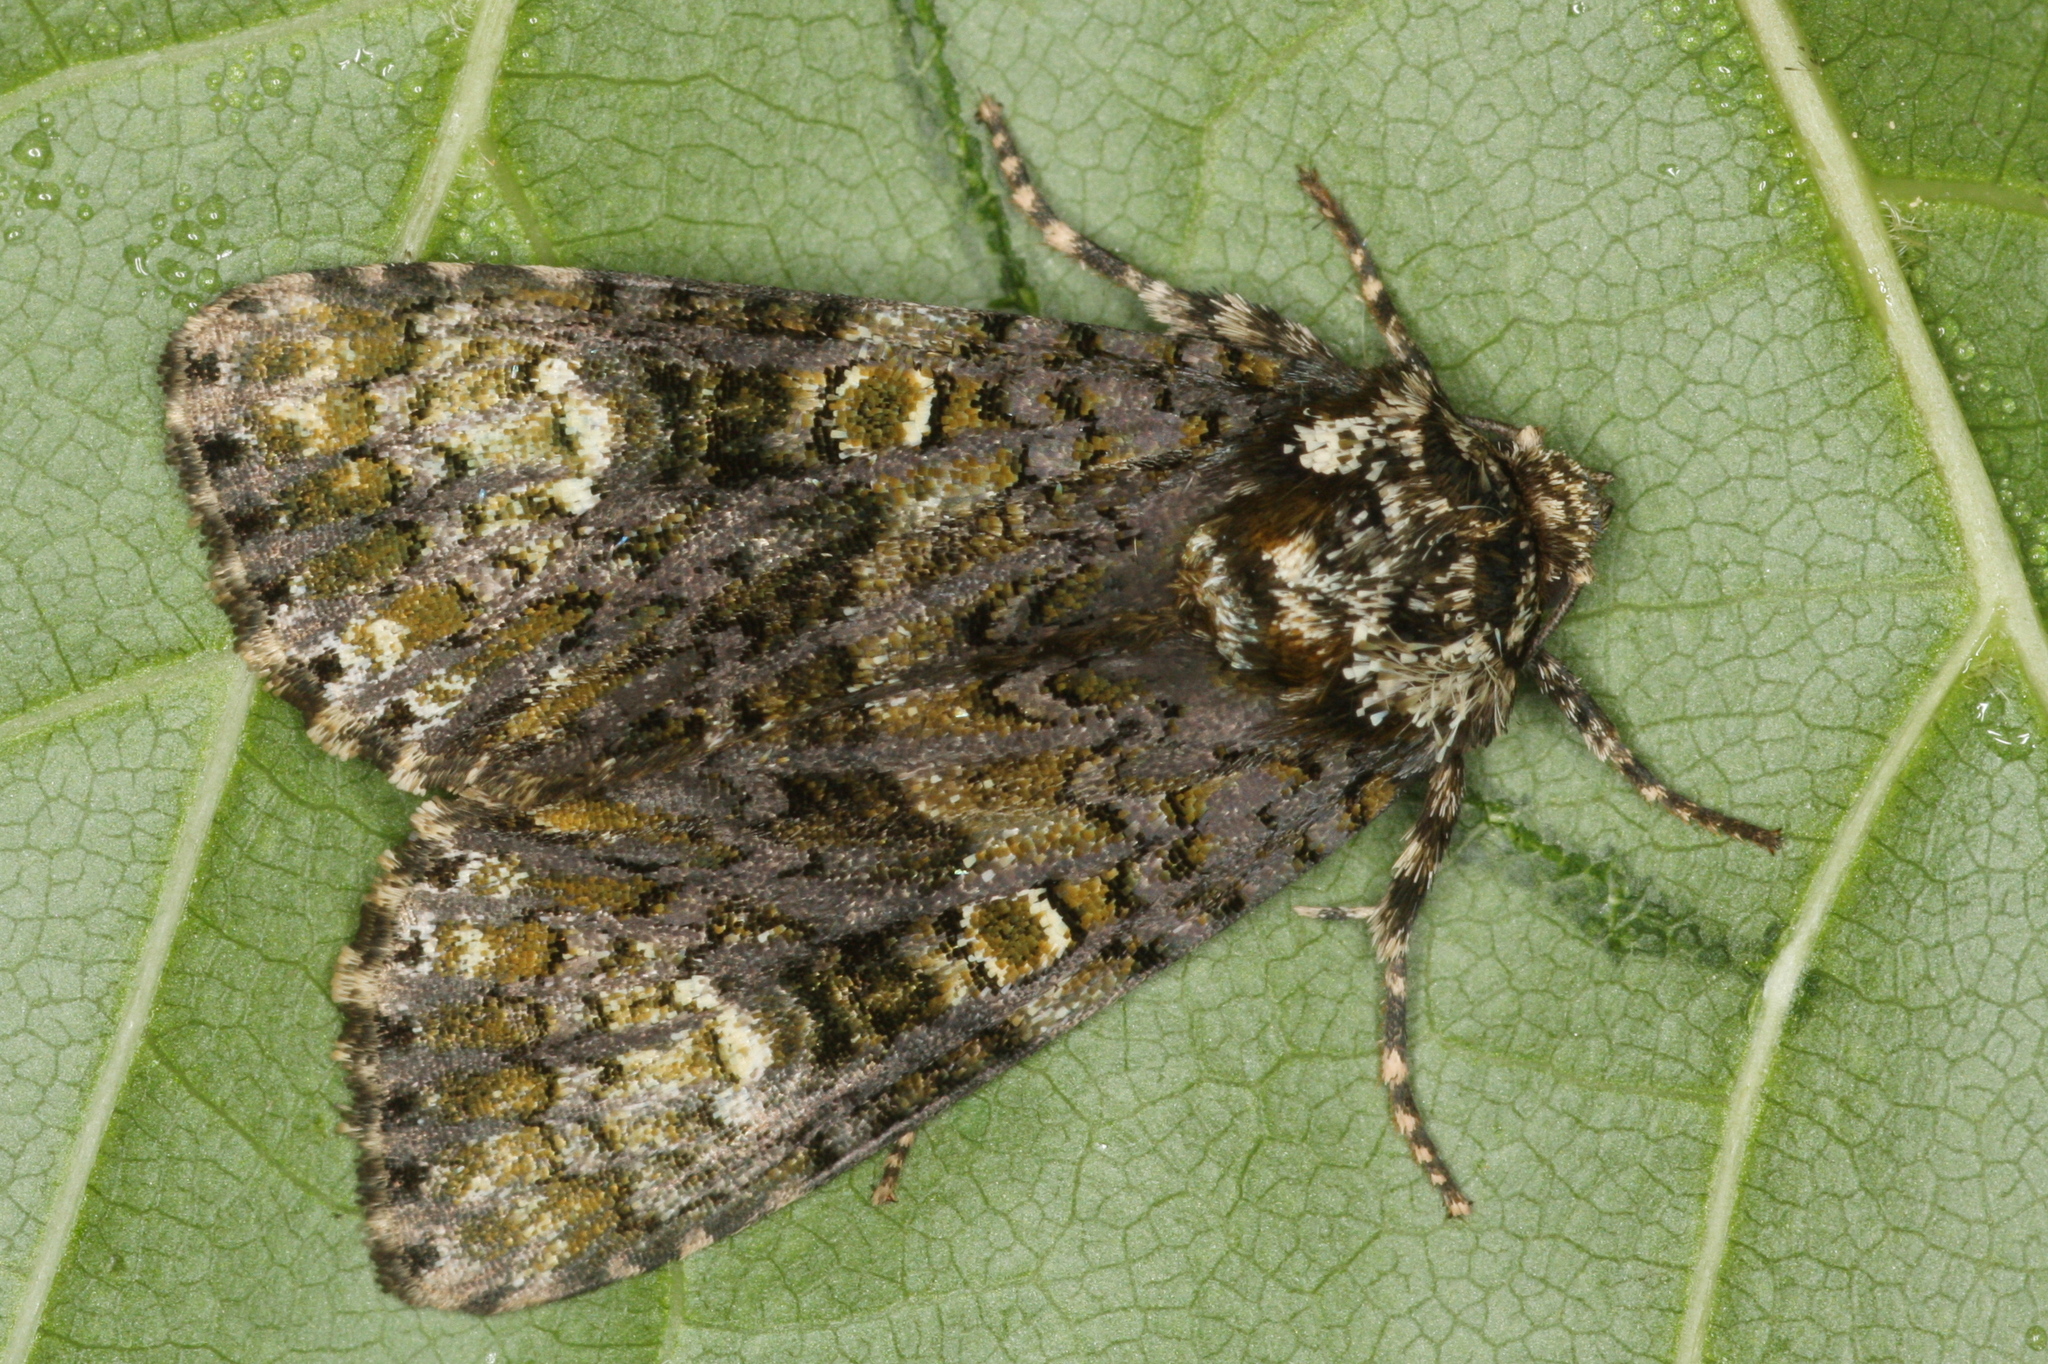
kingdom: Animalia
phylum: Arthropoda
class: Insecta
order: Lepidoptera
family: Noctuidae
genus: Craniophora
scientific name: Craniophora ligustri
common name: Coronet
